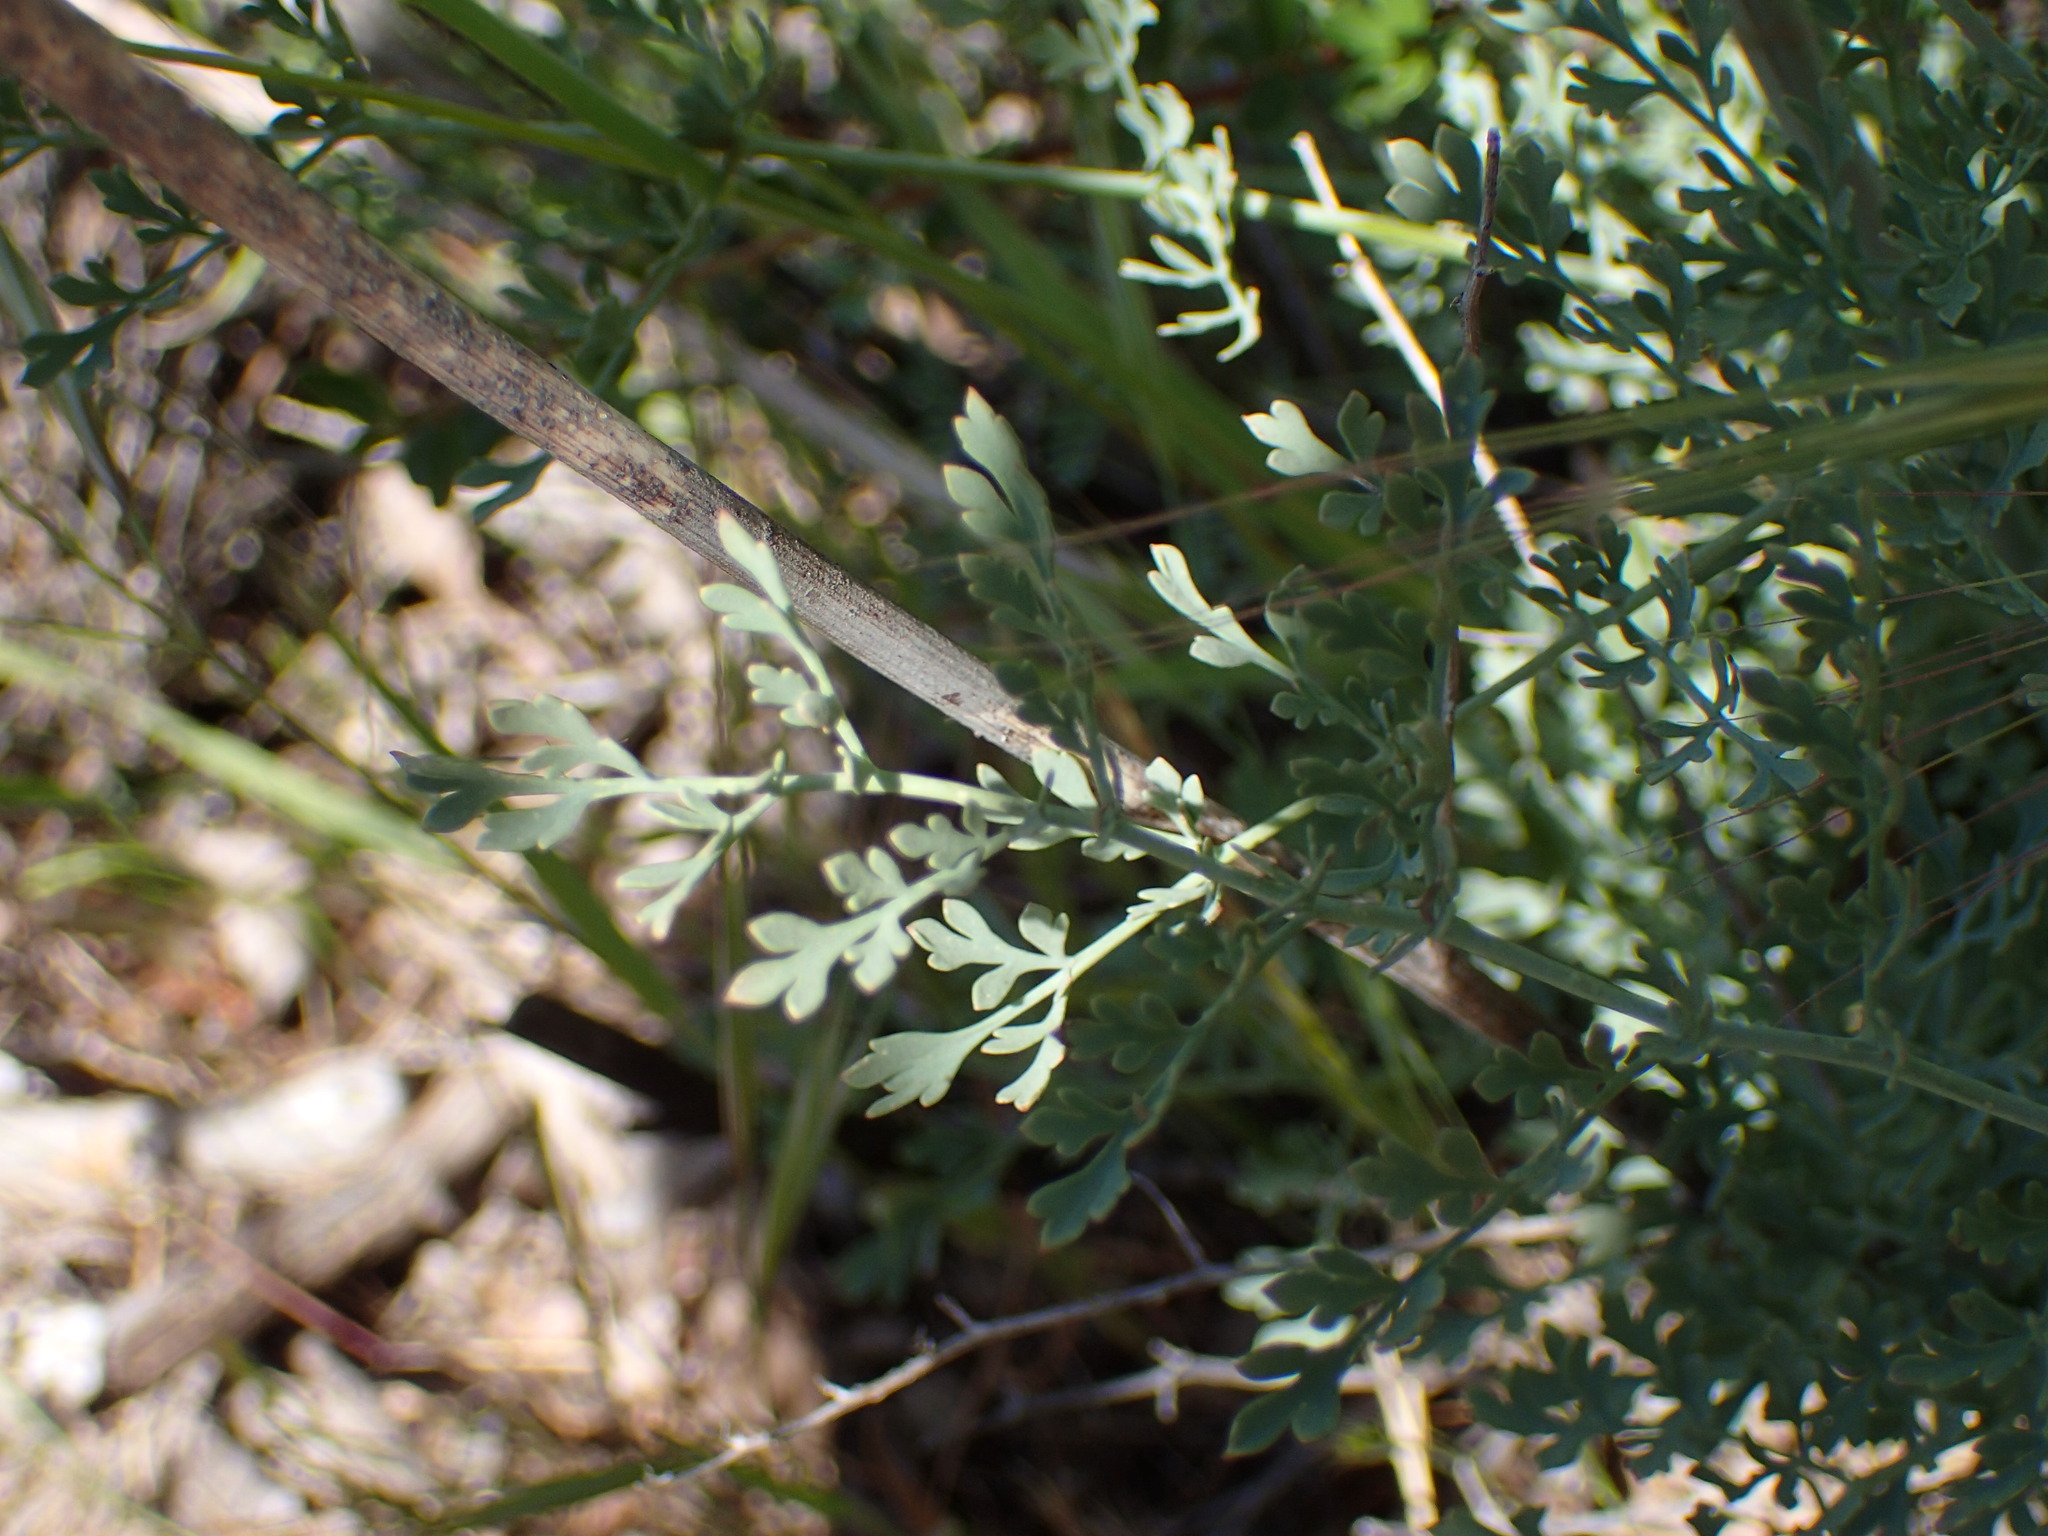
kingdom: Plantae
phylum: Tracheophyta
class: Magnoliopsida
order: Ranunculales
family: Papaveraceae
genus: Ehrendorferia
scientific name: Ehrendorferia chrysantha
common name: Golden eardrops
